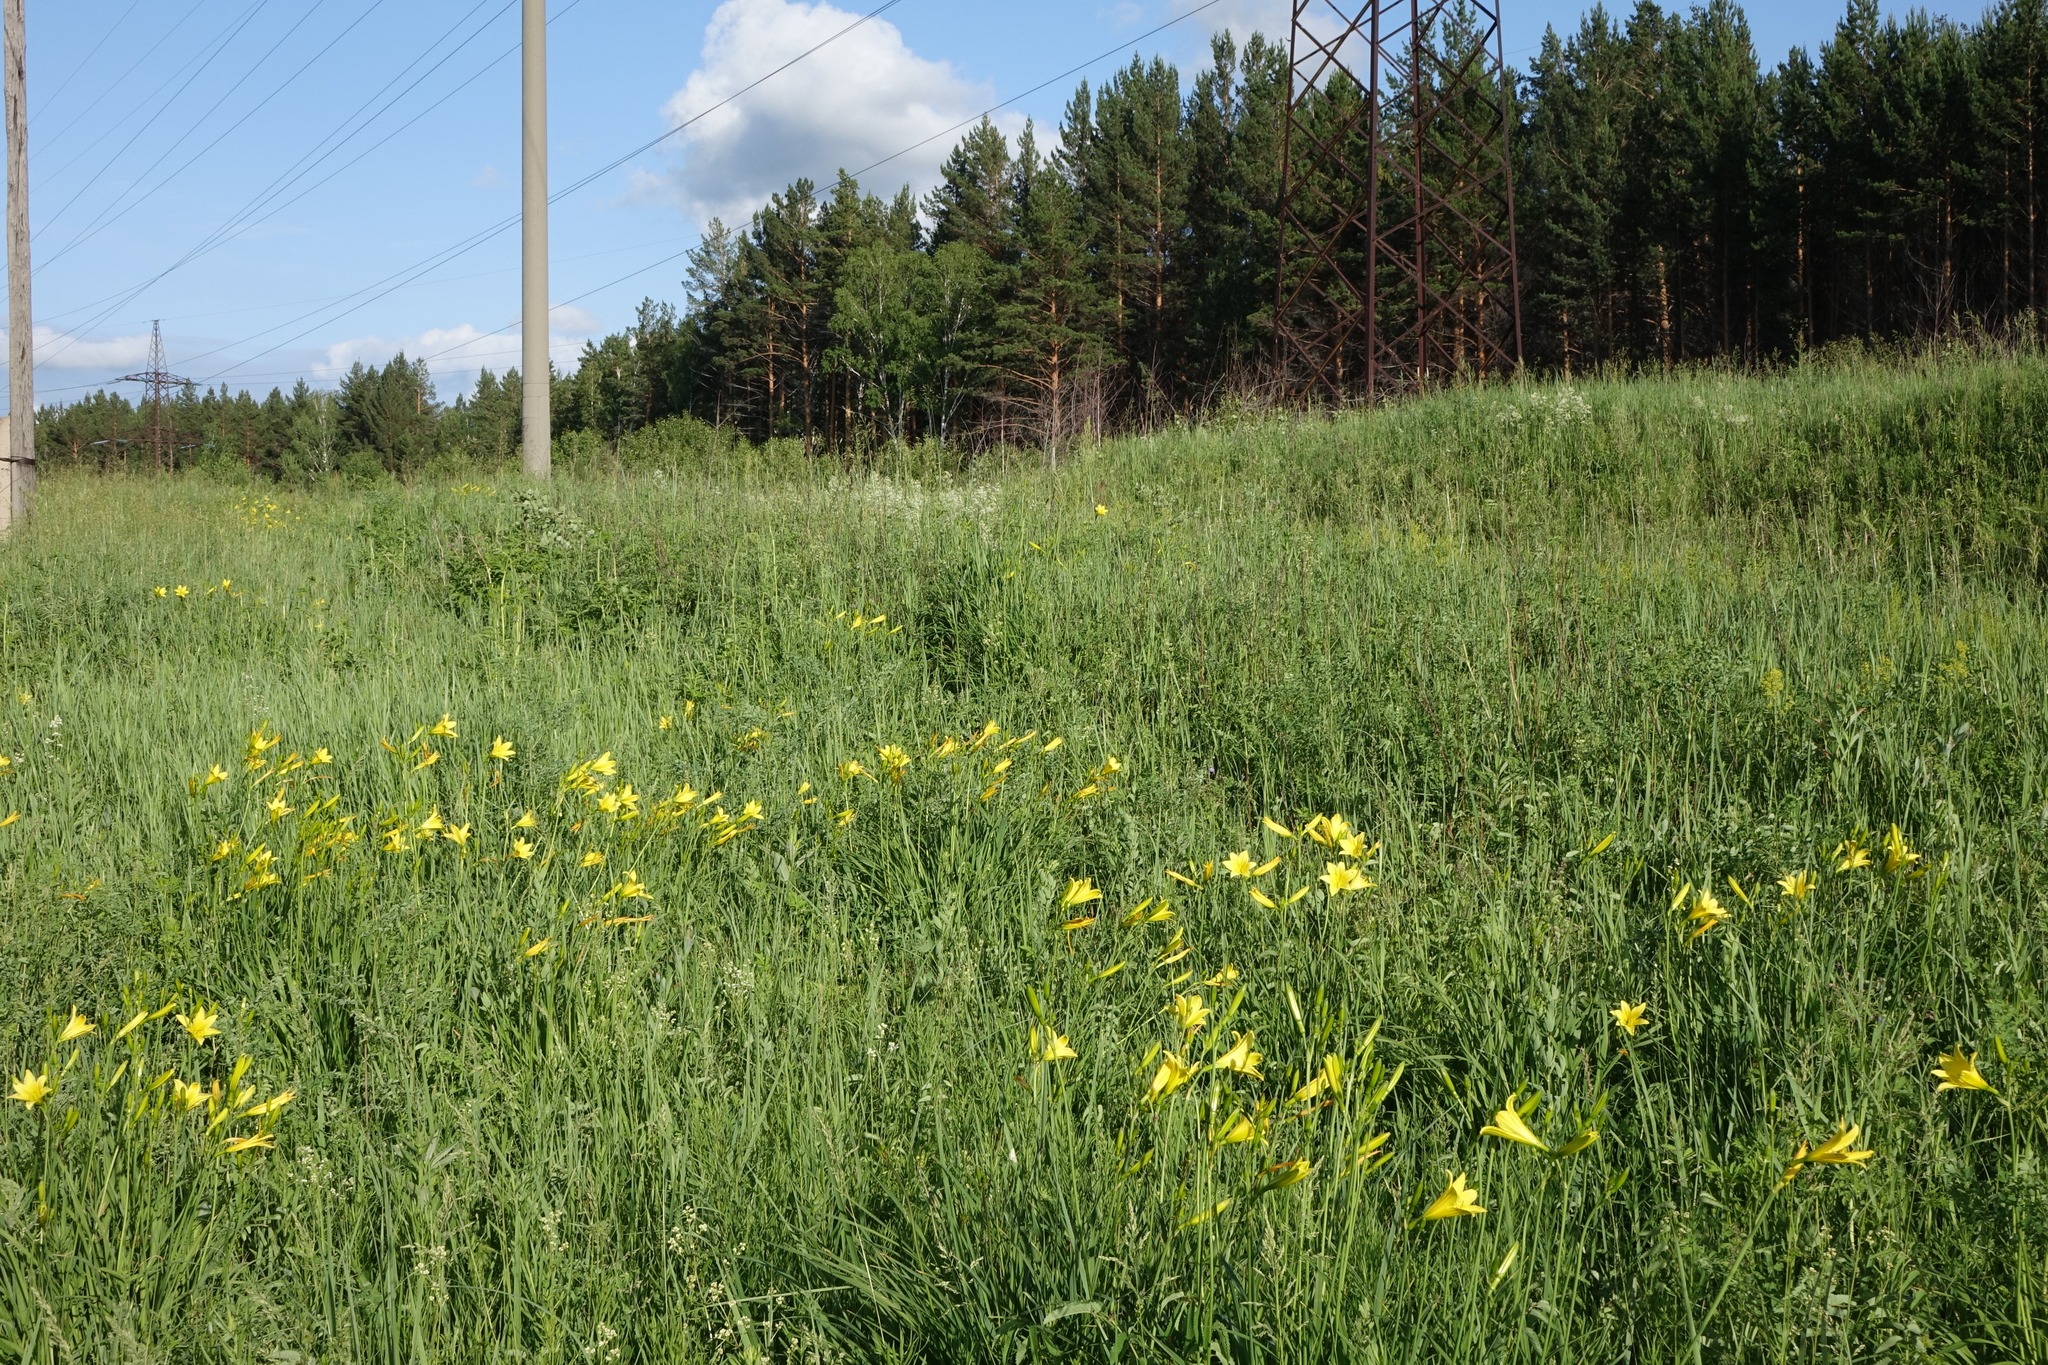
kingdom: Plantae
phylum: Tracheophyta
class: Liliopsida
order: Asparagales
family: Asphodelaceae
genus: Hemerocallis
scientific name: Hemerocallis minor
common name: Small daylily
